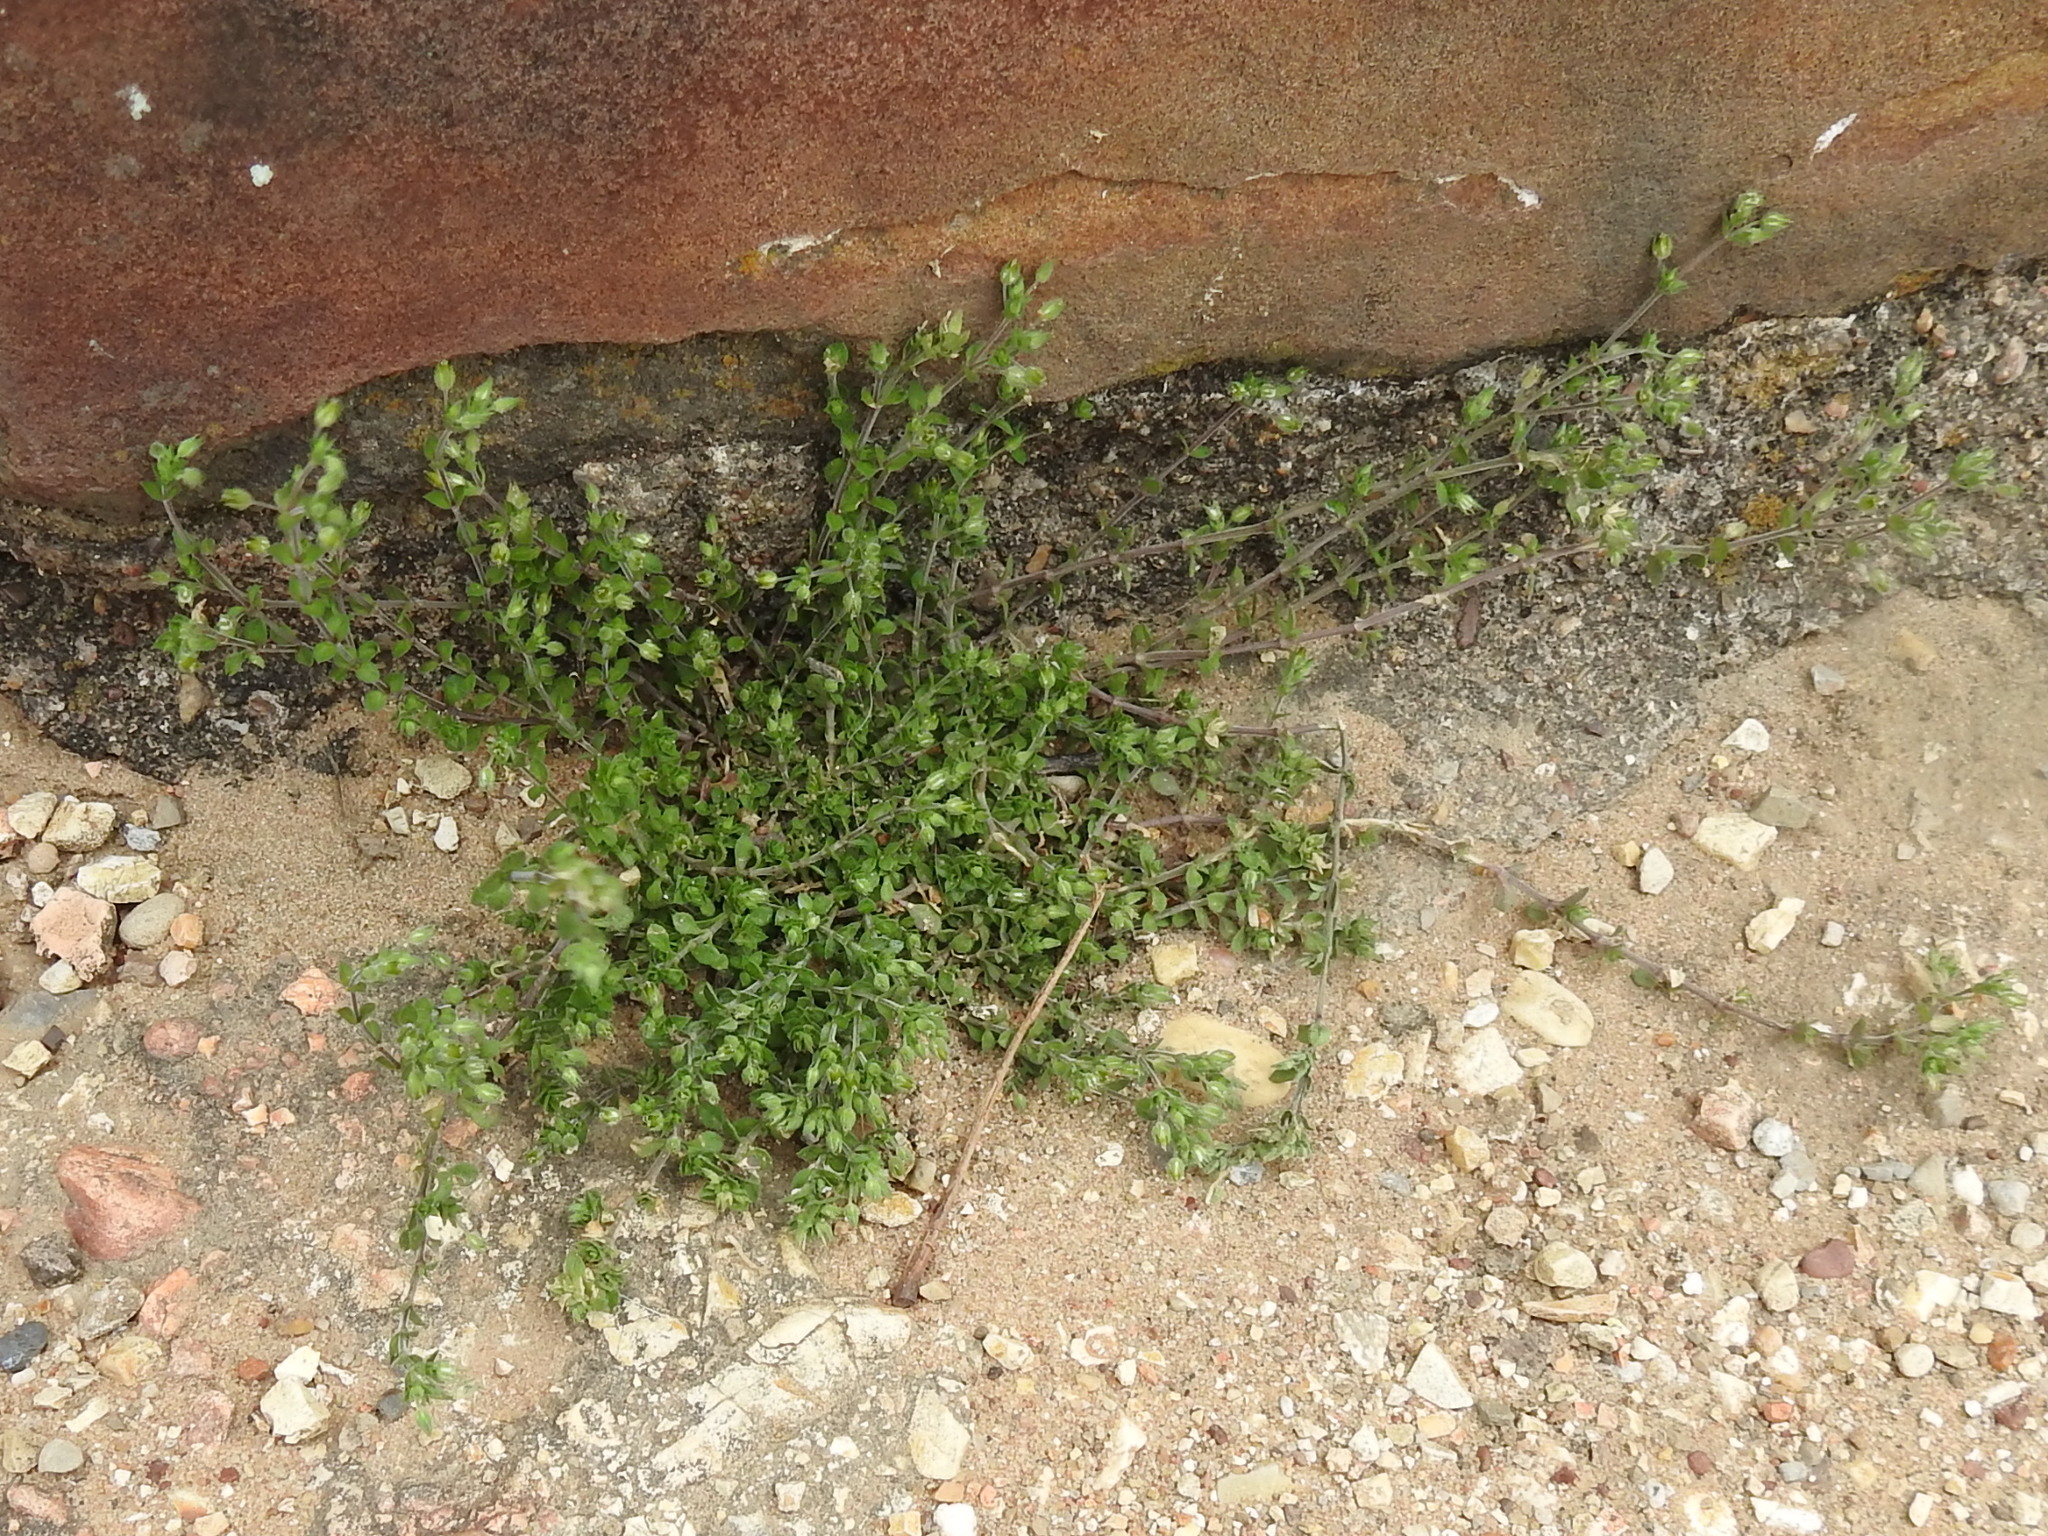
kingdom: Plantae
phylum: Tracheophyta
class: Magnoliopsida
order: Caryophyllales
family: Caryophyllaceae
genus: Arenaria
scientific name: Arenaria serpyllifolia
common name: Thyme-leaved sandwort
